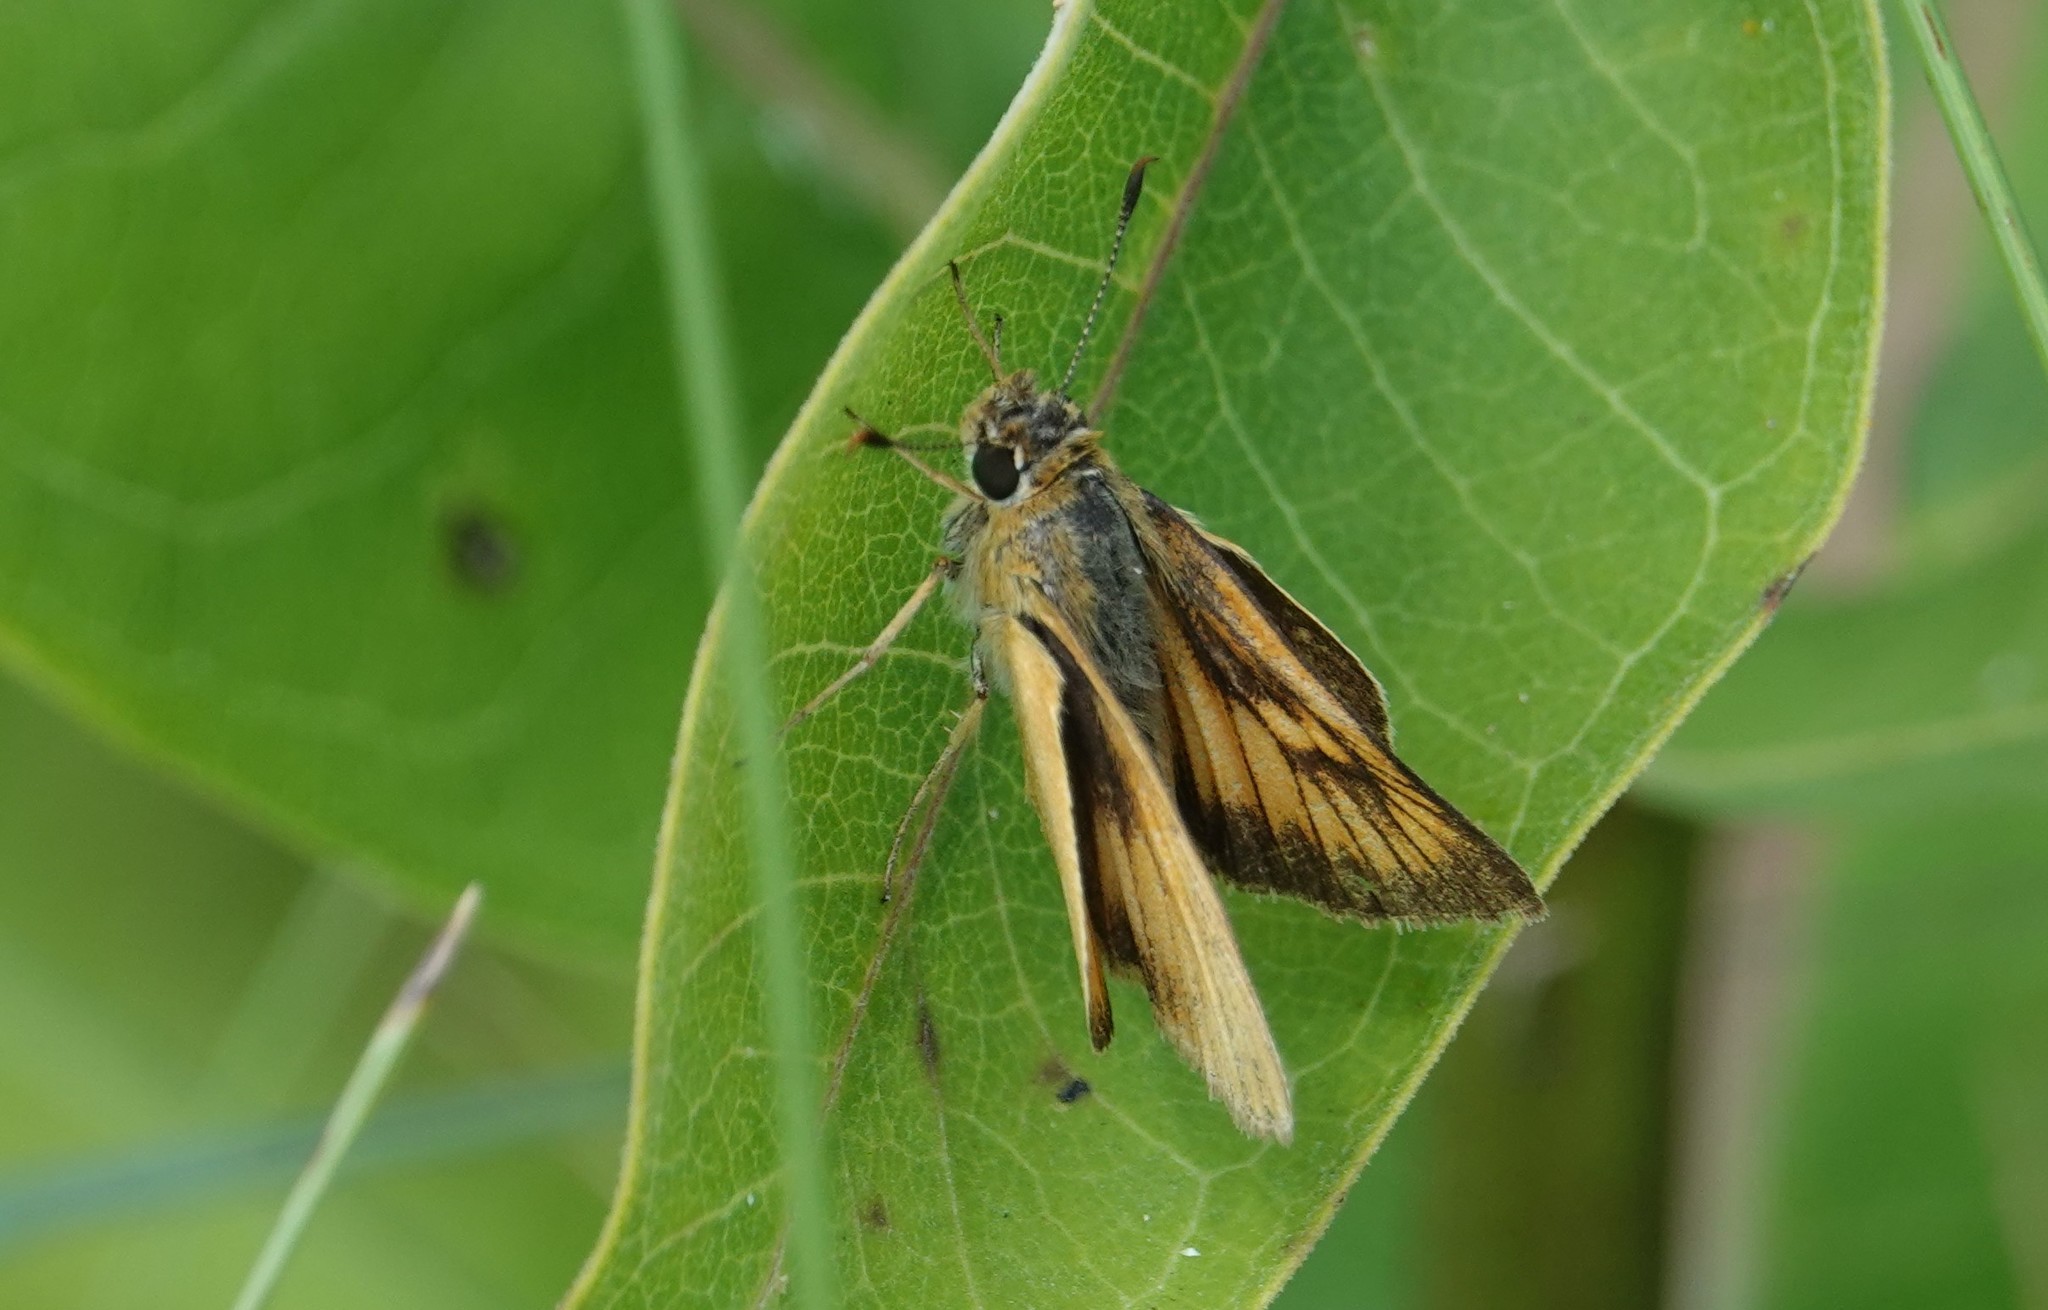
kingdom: Animalia
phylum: Arthropoda
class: Insecta
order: Lepidoptera
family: Hesperiidae
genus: Atrytone
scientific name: Atrytone delaware
